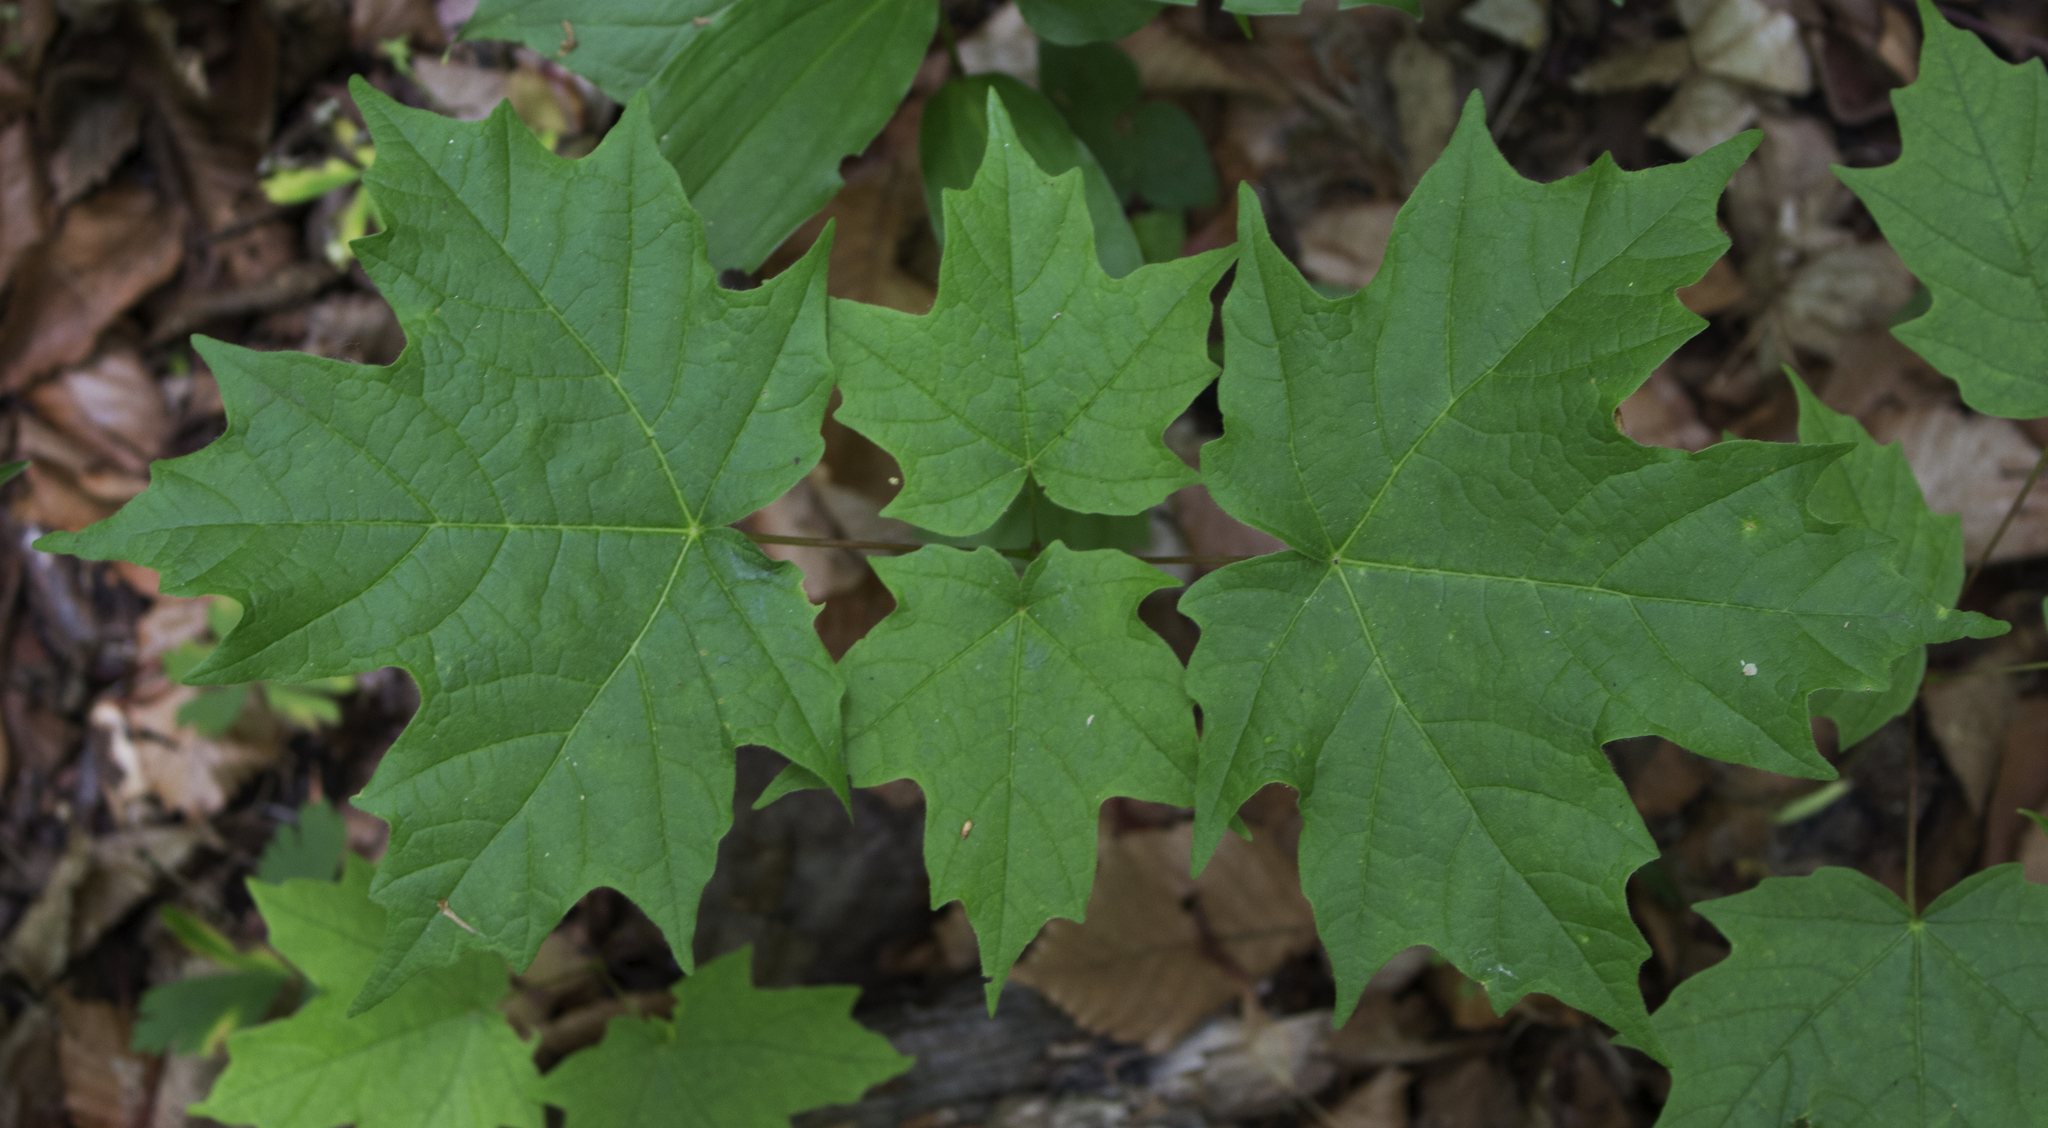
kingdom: Plantae
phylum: Tracheophyta
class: Magnoliopsida
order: Sapindales
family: Sapindaceae
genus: Acer
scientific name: Acer saccharum
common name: Sugar maple
